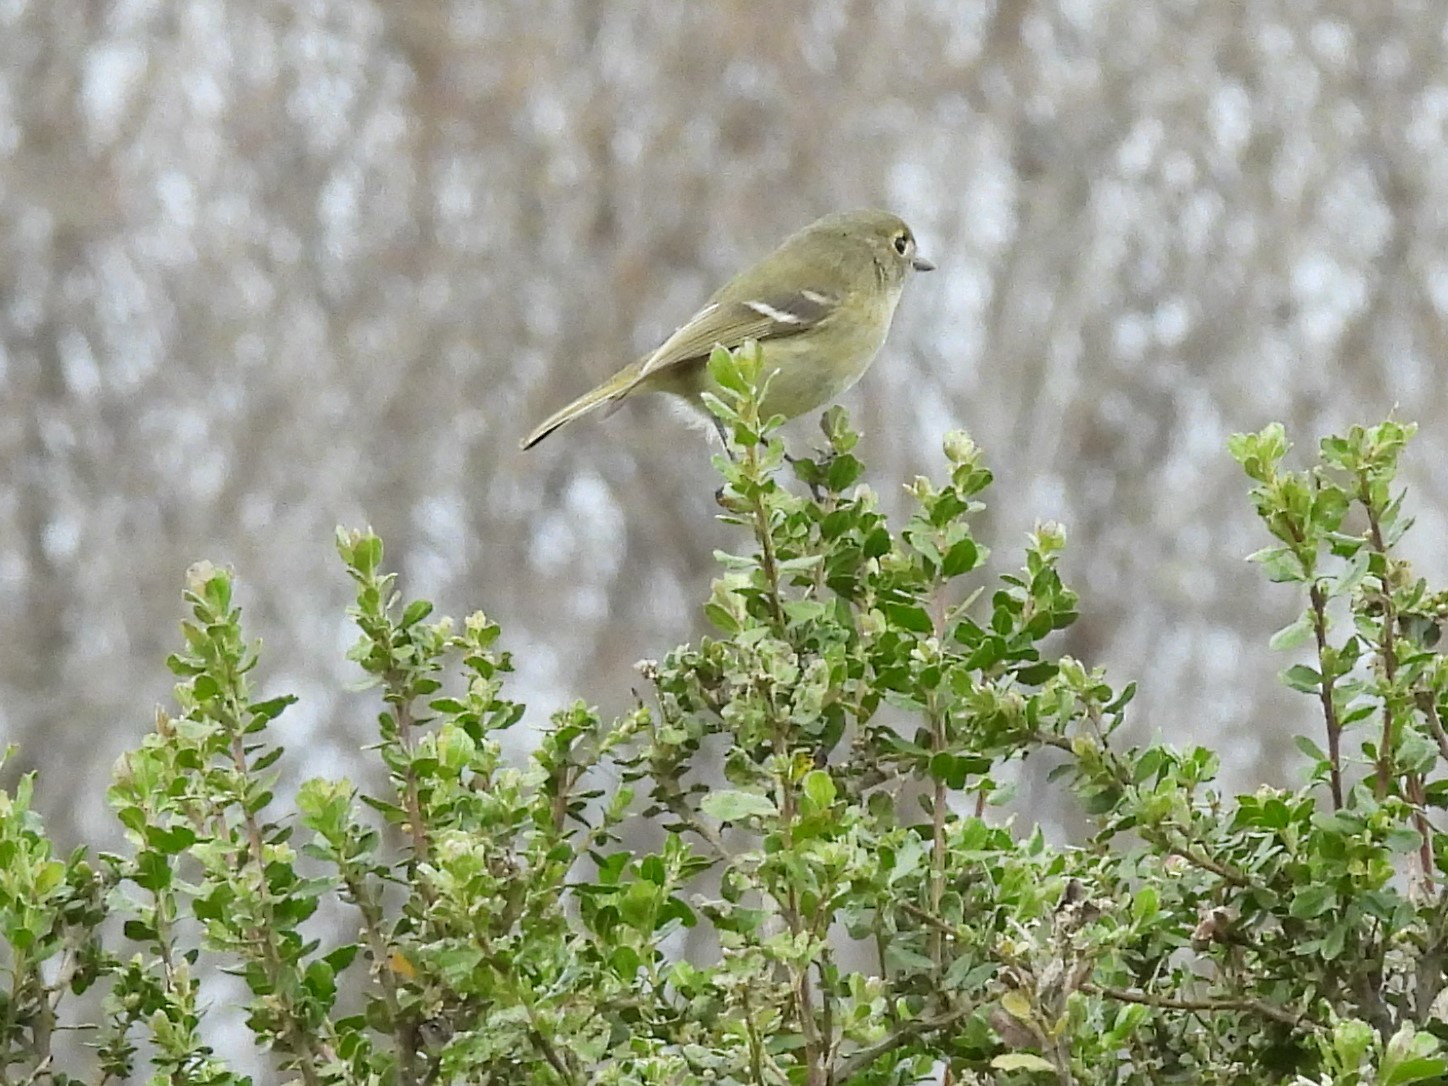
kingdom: Animalia
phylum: Chordata
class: Aves
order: Passeriformes
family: Vireonidae
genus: Vireo
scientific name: Vireo huttoni
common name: Hutton's vireo
